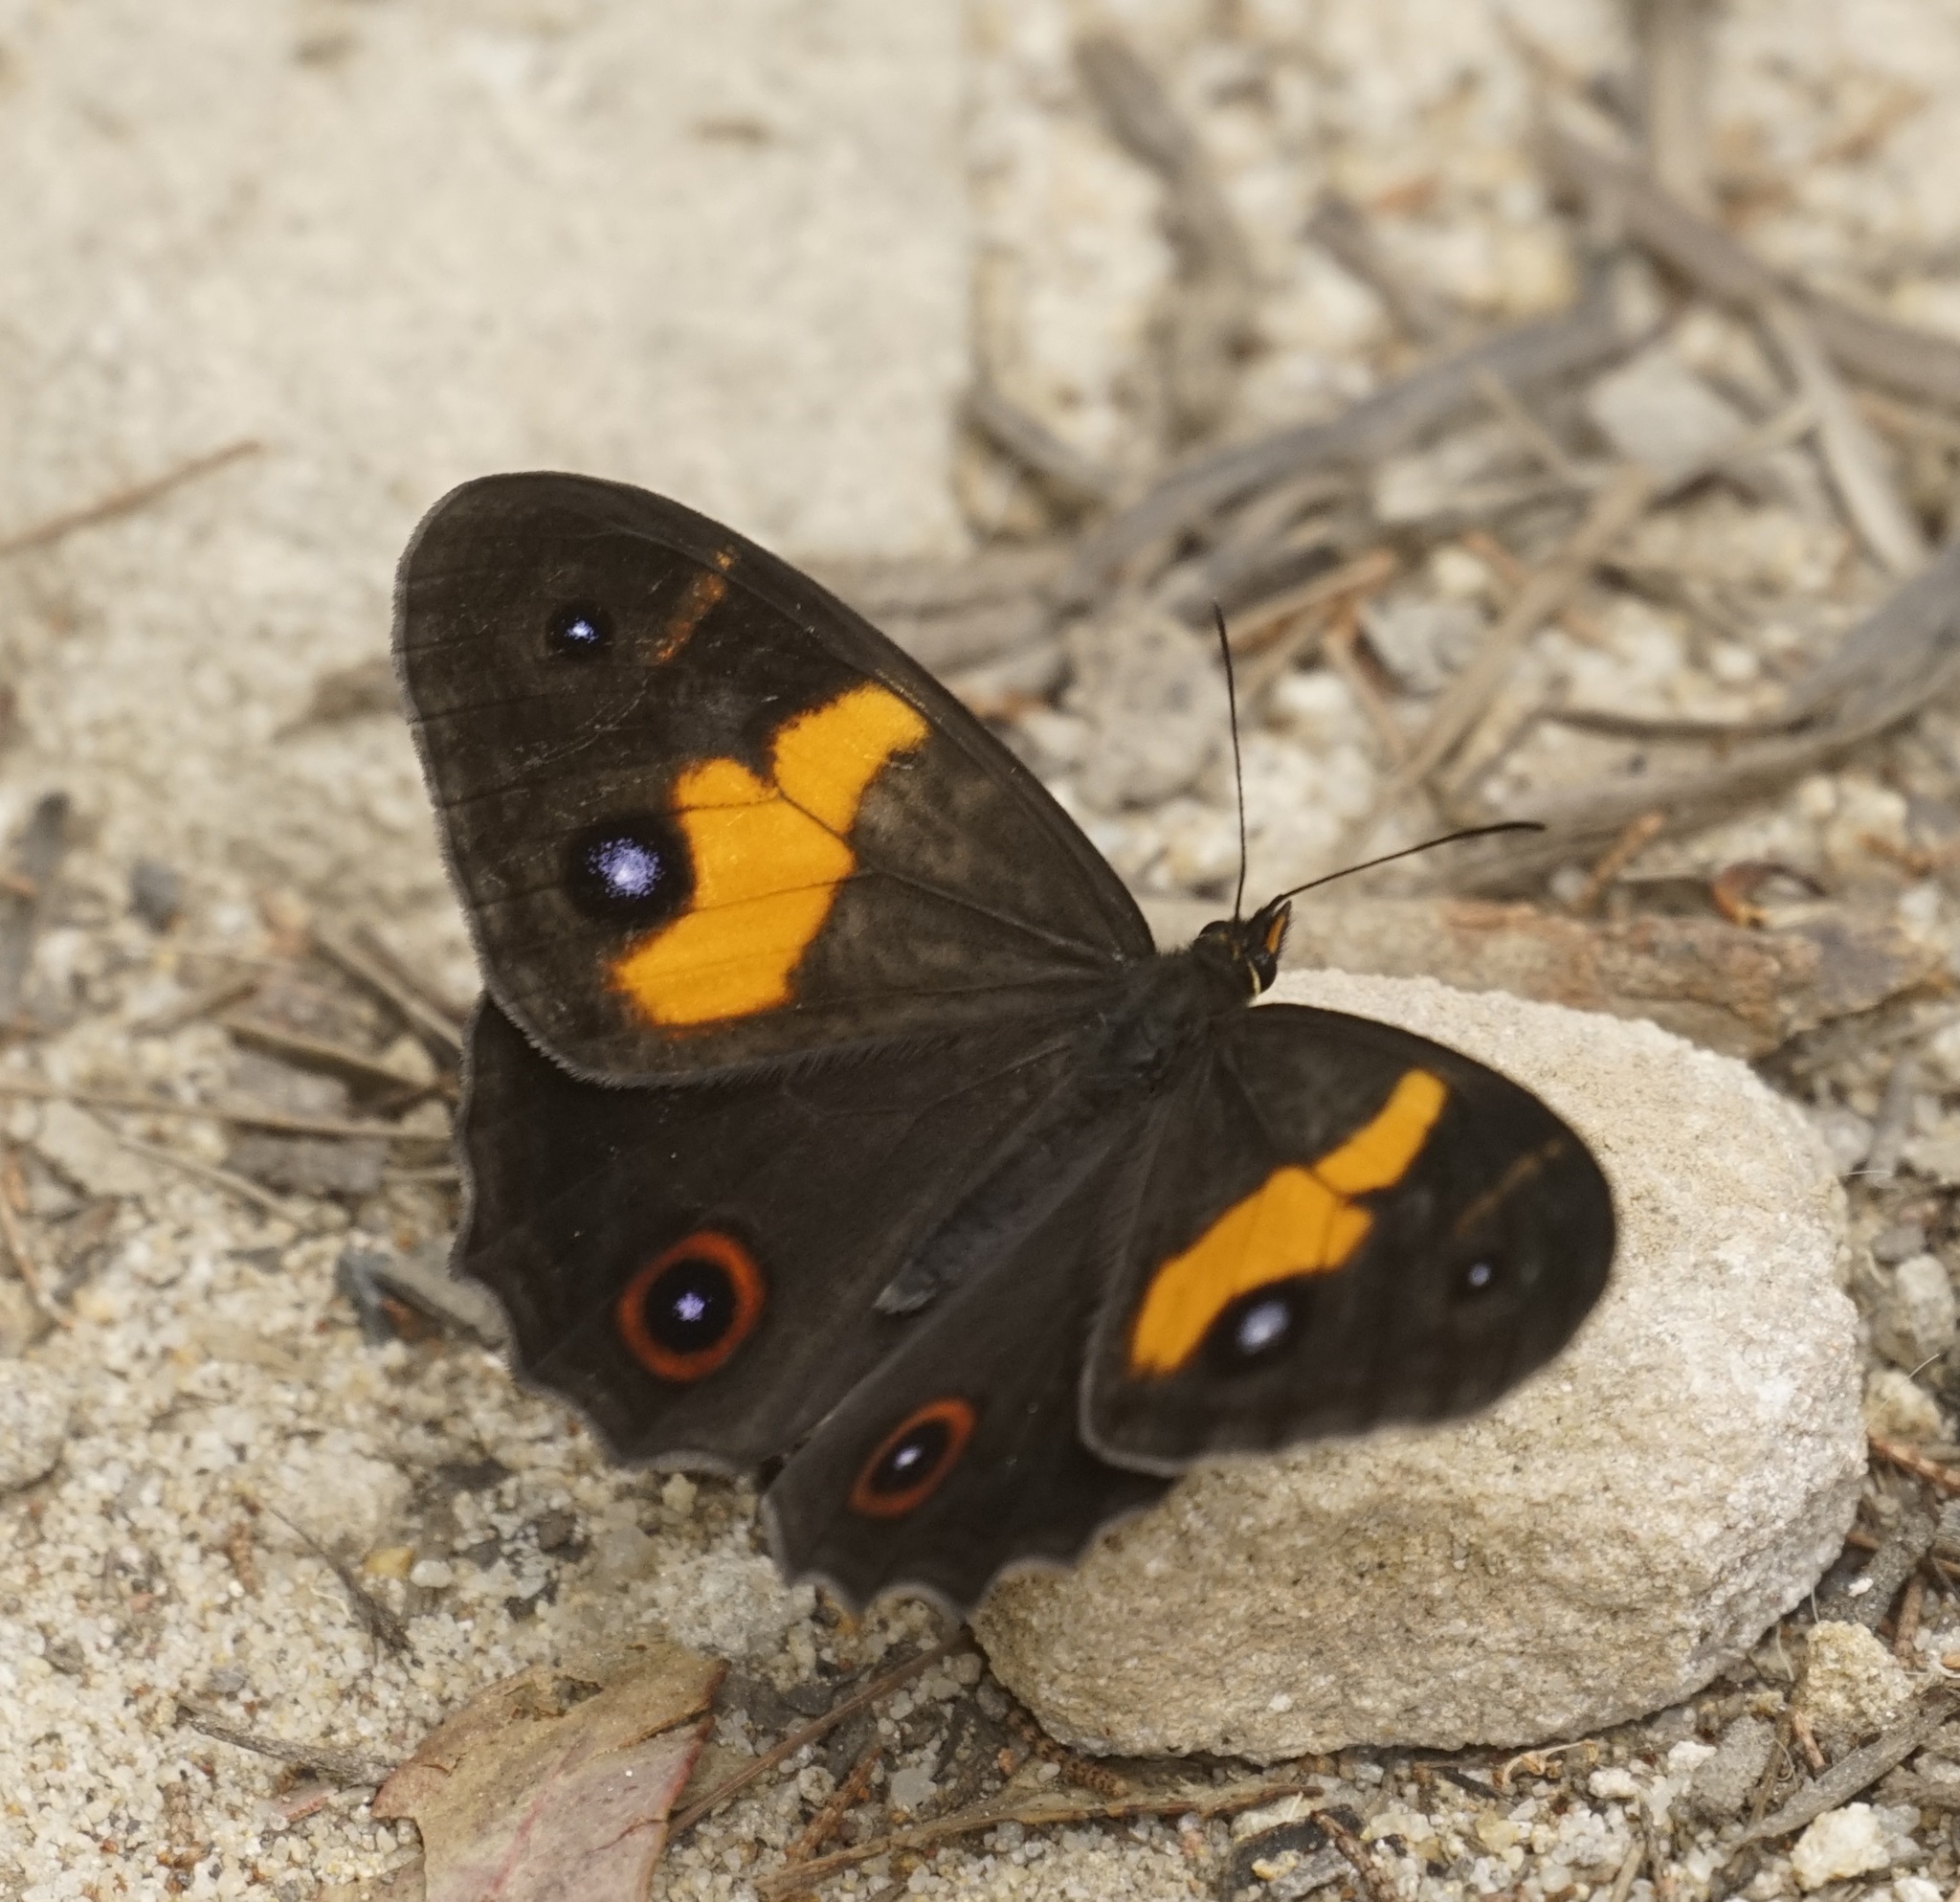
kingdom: Animalia
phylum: Arthropoda
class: Insecta
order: Lepidoptera
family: Nymphalidae
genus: Tisiphone
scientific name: Tisiphone abeona
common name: Swordgrass brown
